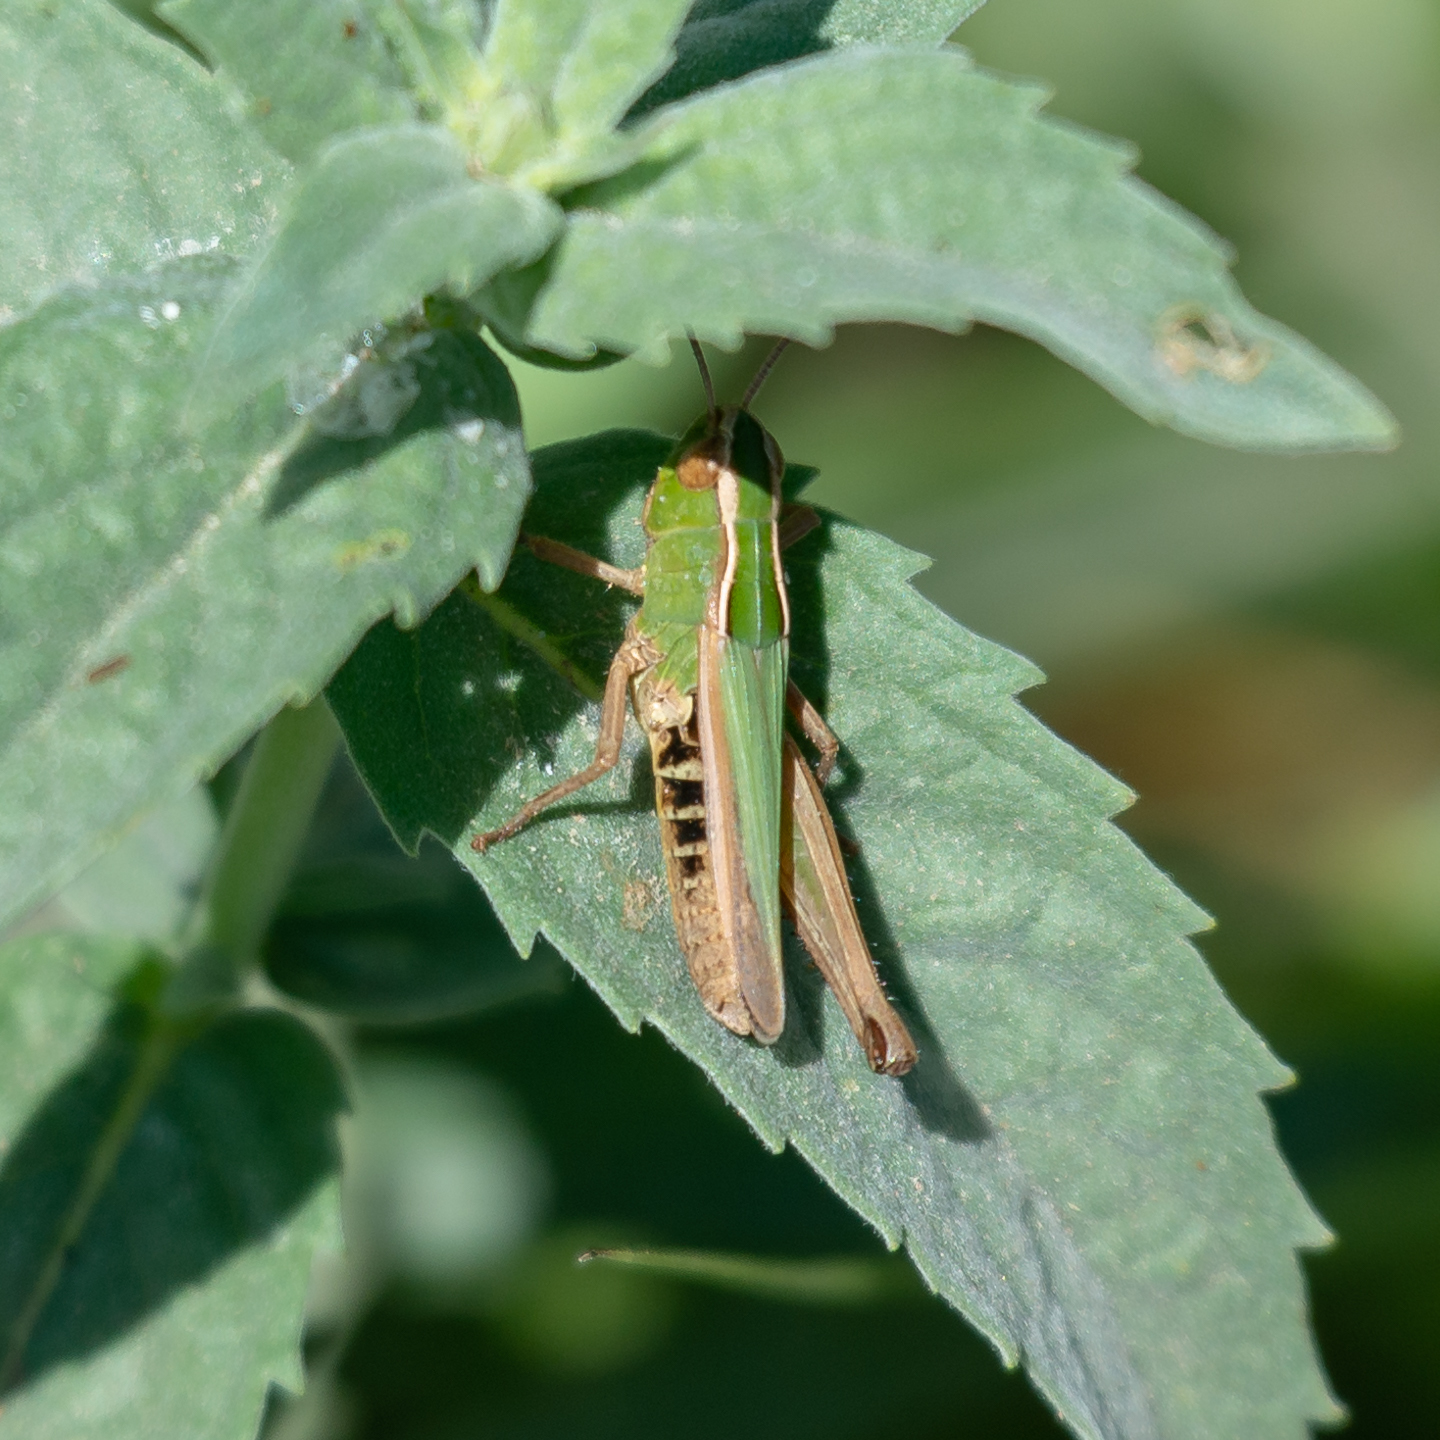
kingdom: Animalia
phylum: Arthropoda
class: Insecta
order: Orthoptera
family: Acrididae
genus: Omocestus
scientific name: Omocestus panteli
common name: Pantel's grasshopper
